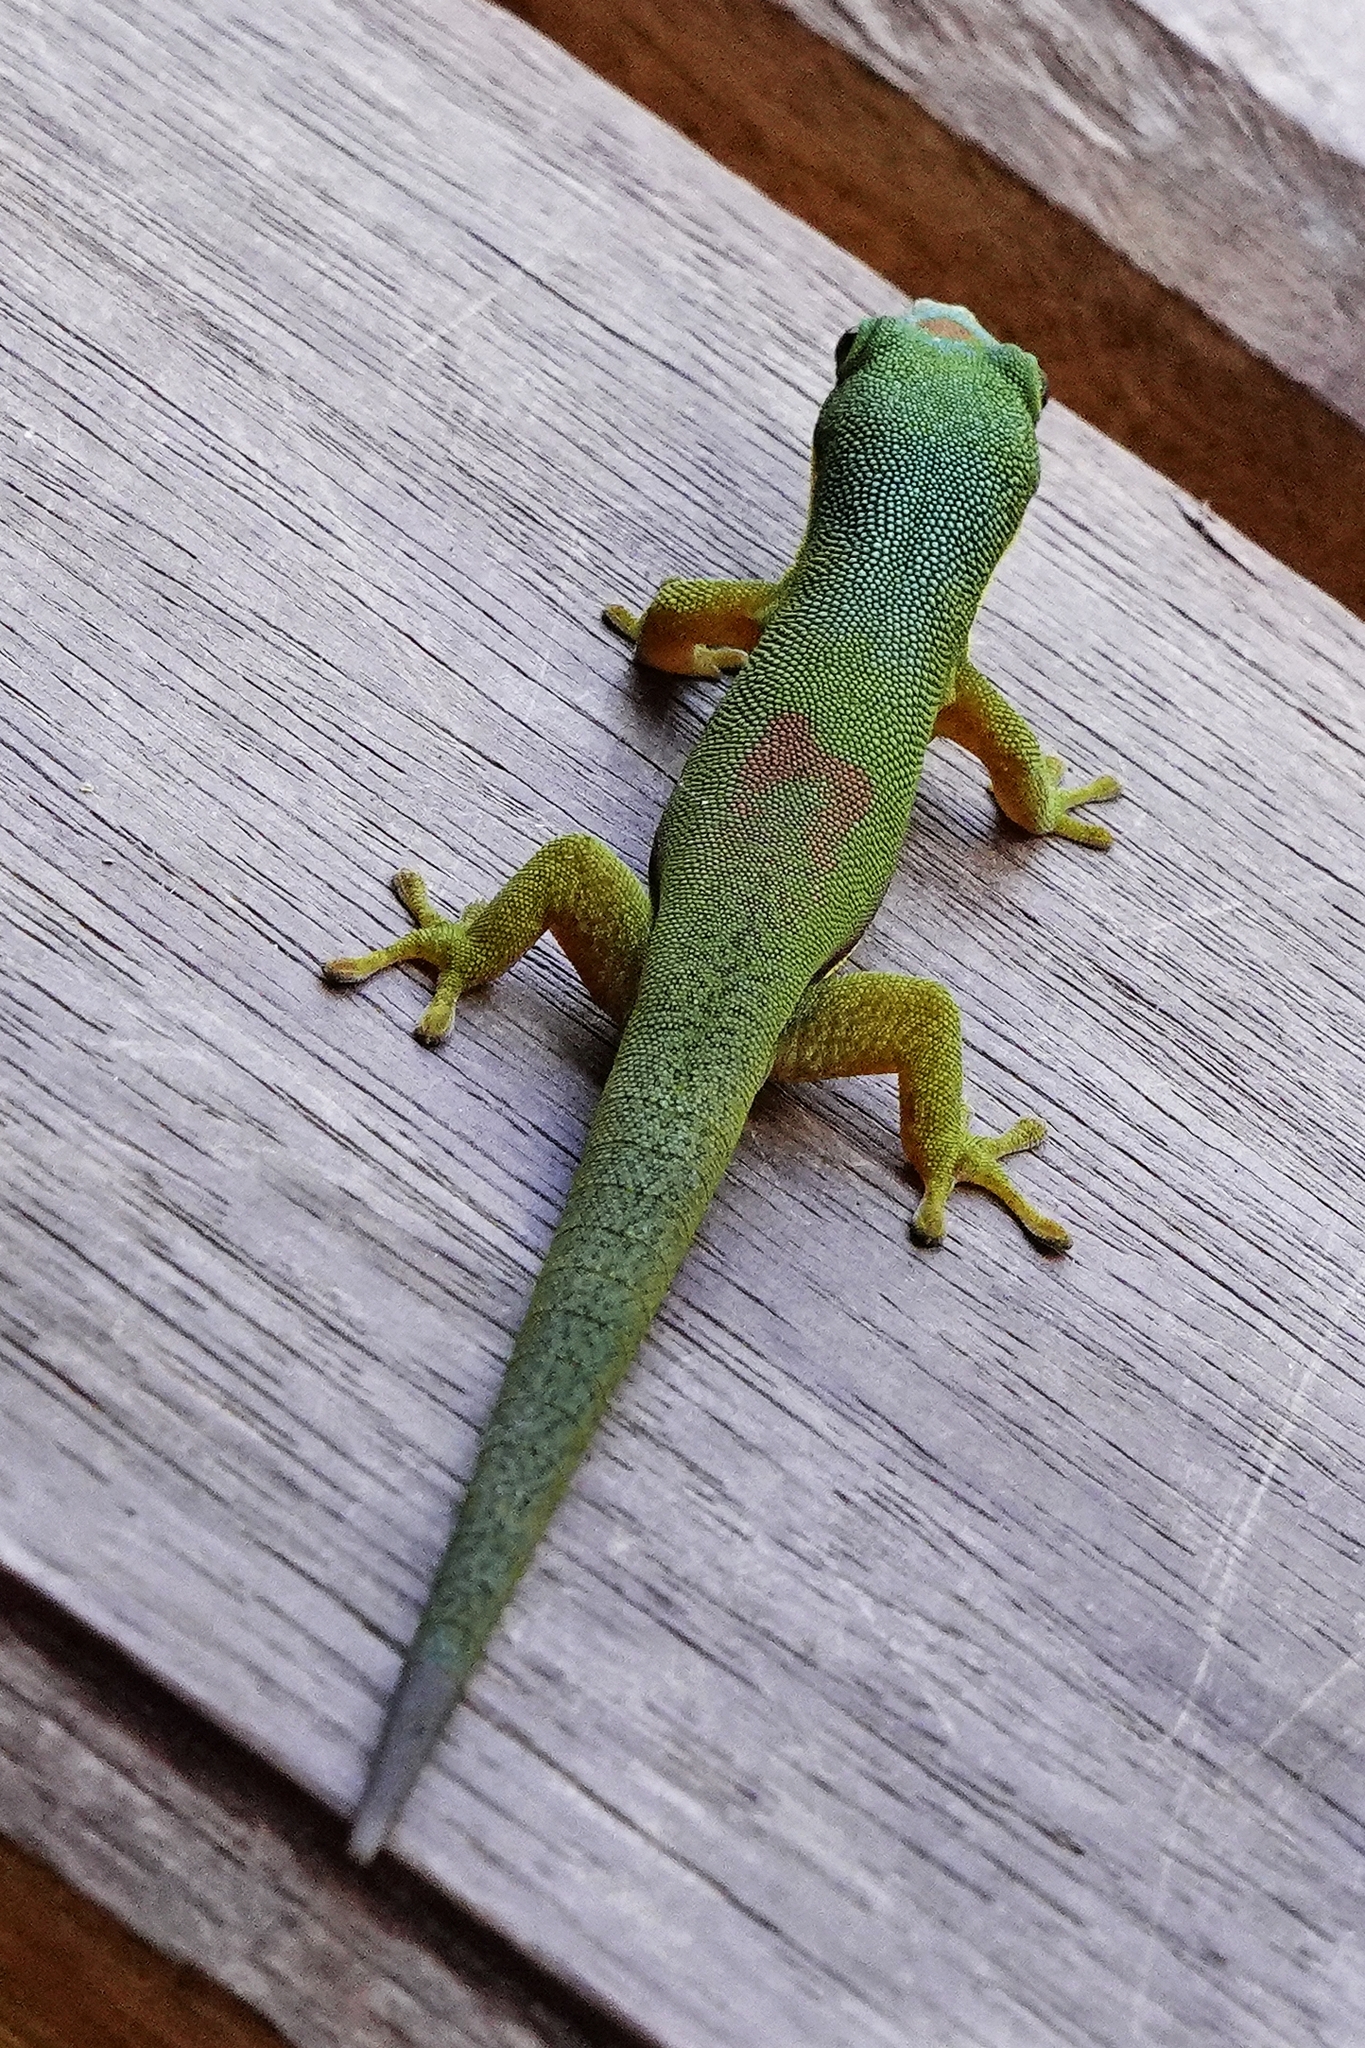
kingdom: Animalia
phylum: Chordata
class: Squamata
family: Gekkonidae
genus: Phelsuma
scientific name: Phelsuma lineata
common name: Lined day gecko
